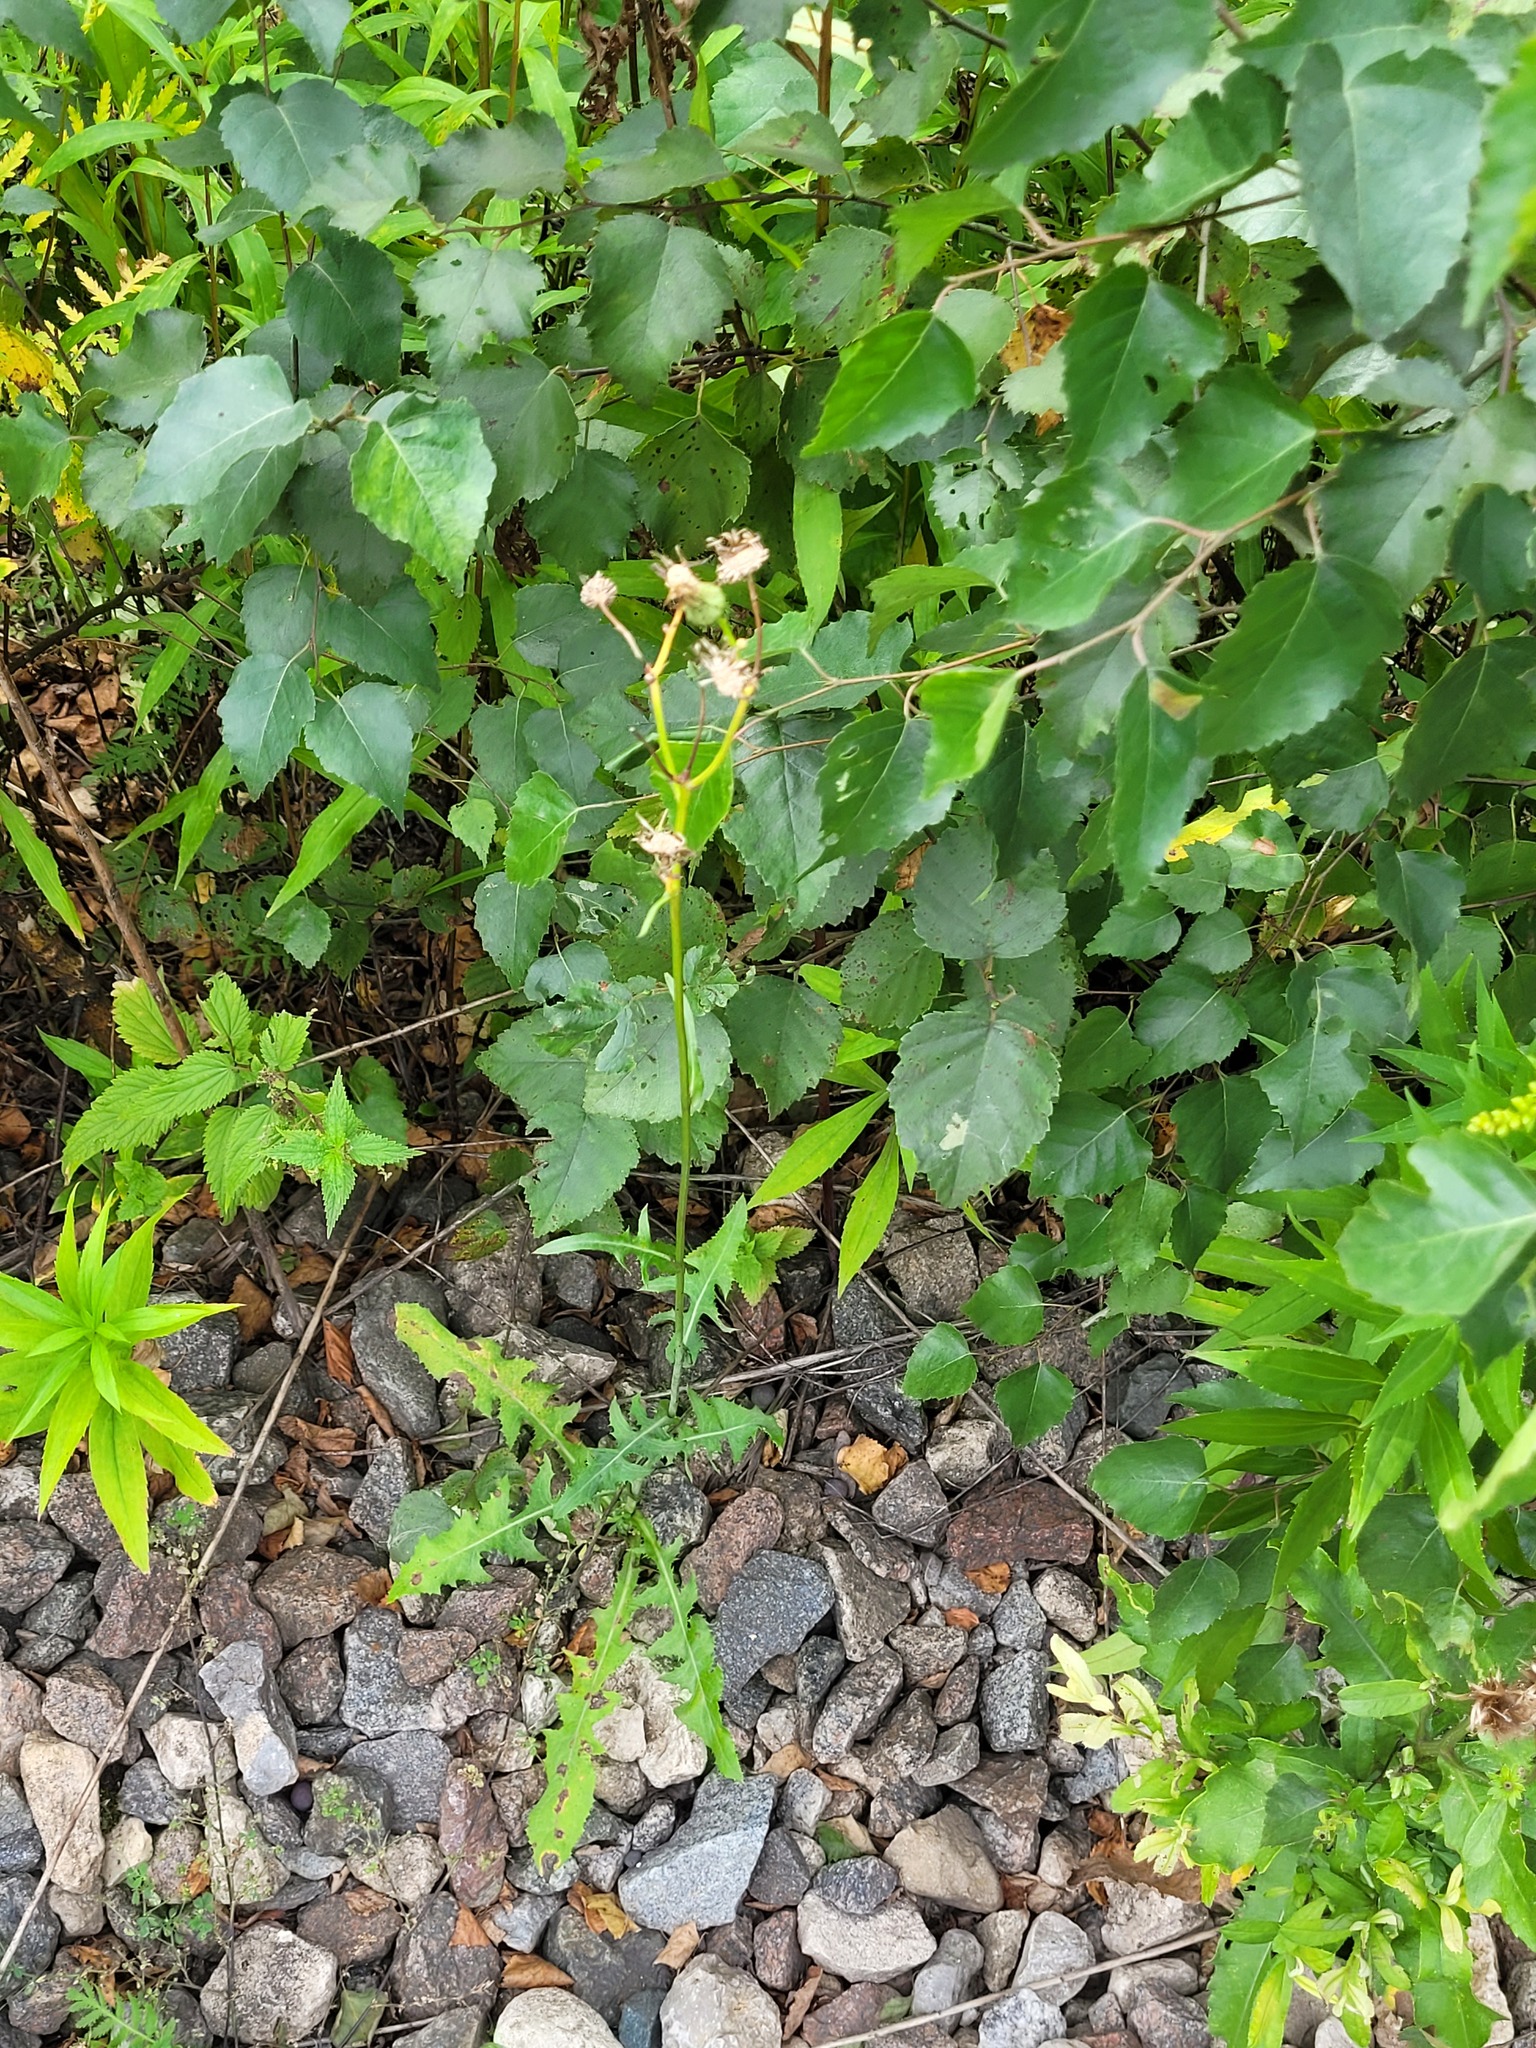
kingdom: Plantae
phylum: Tracheophyta
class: Magnoliopsida
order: Asterales
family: Asteraceae
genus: Sonchus
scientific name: Sonchus oleraceus
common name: Common sowthistle
